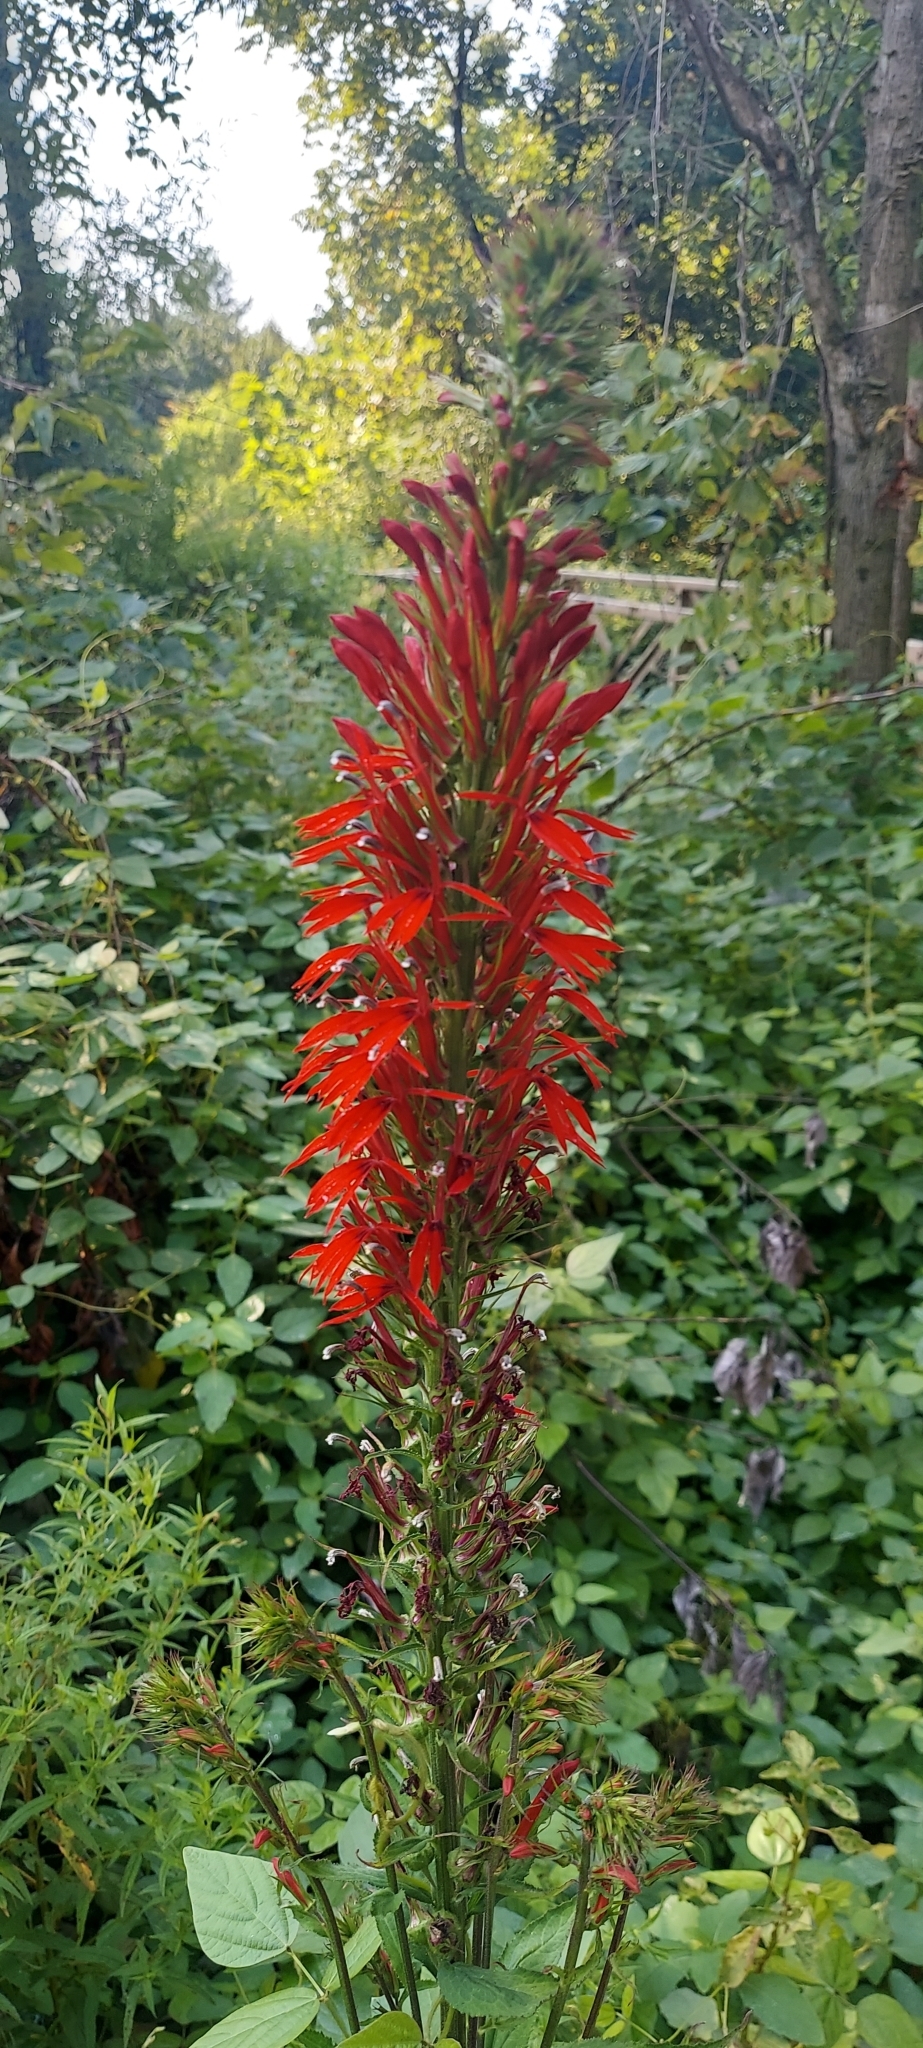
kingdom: Plantae
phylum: Tracheophyta
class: Magnoliopsida
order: Asterales
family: Campanulaceae
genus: Lobelia
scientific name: Lobelia cardinalis
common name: Cardinal flower
